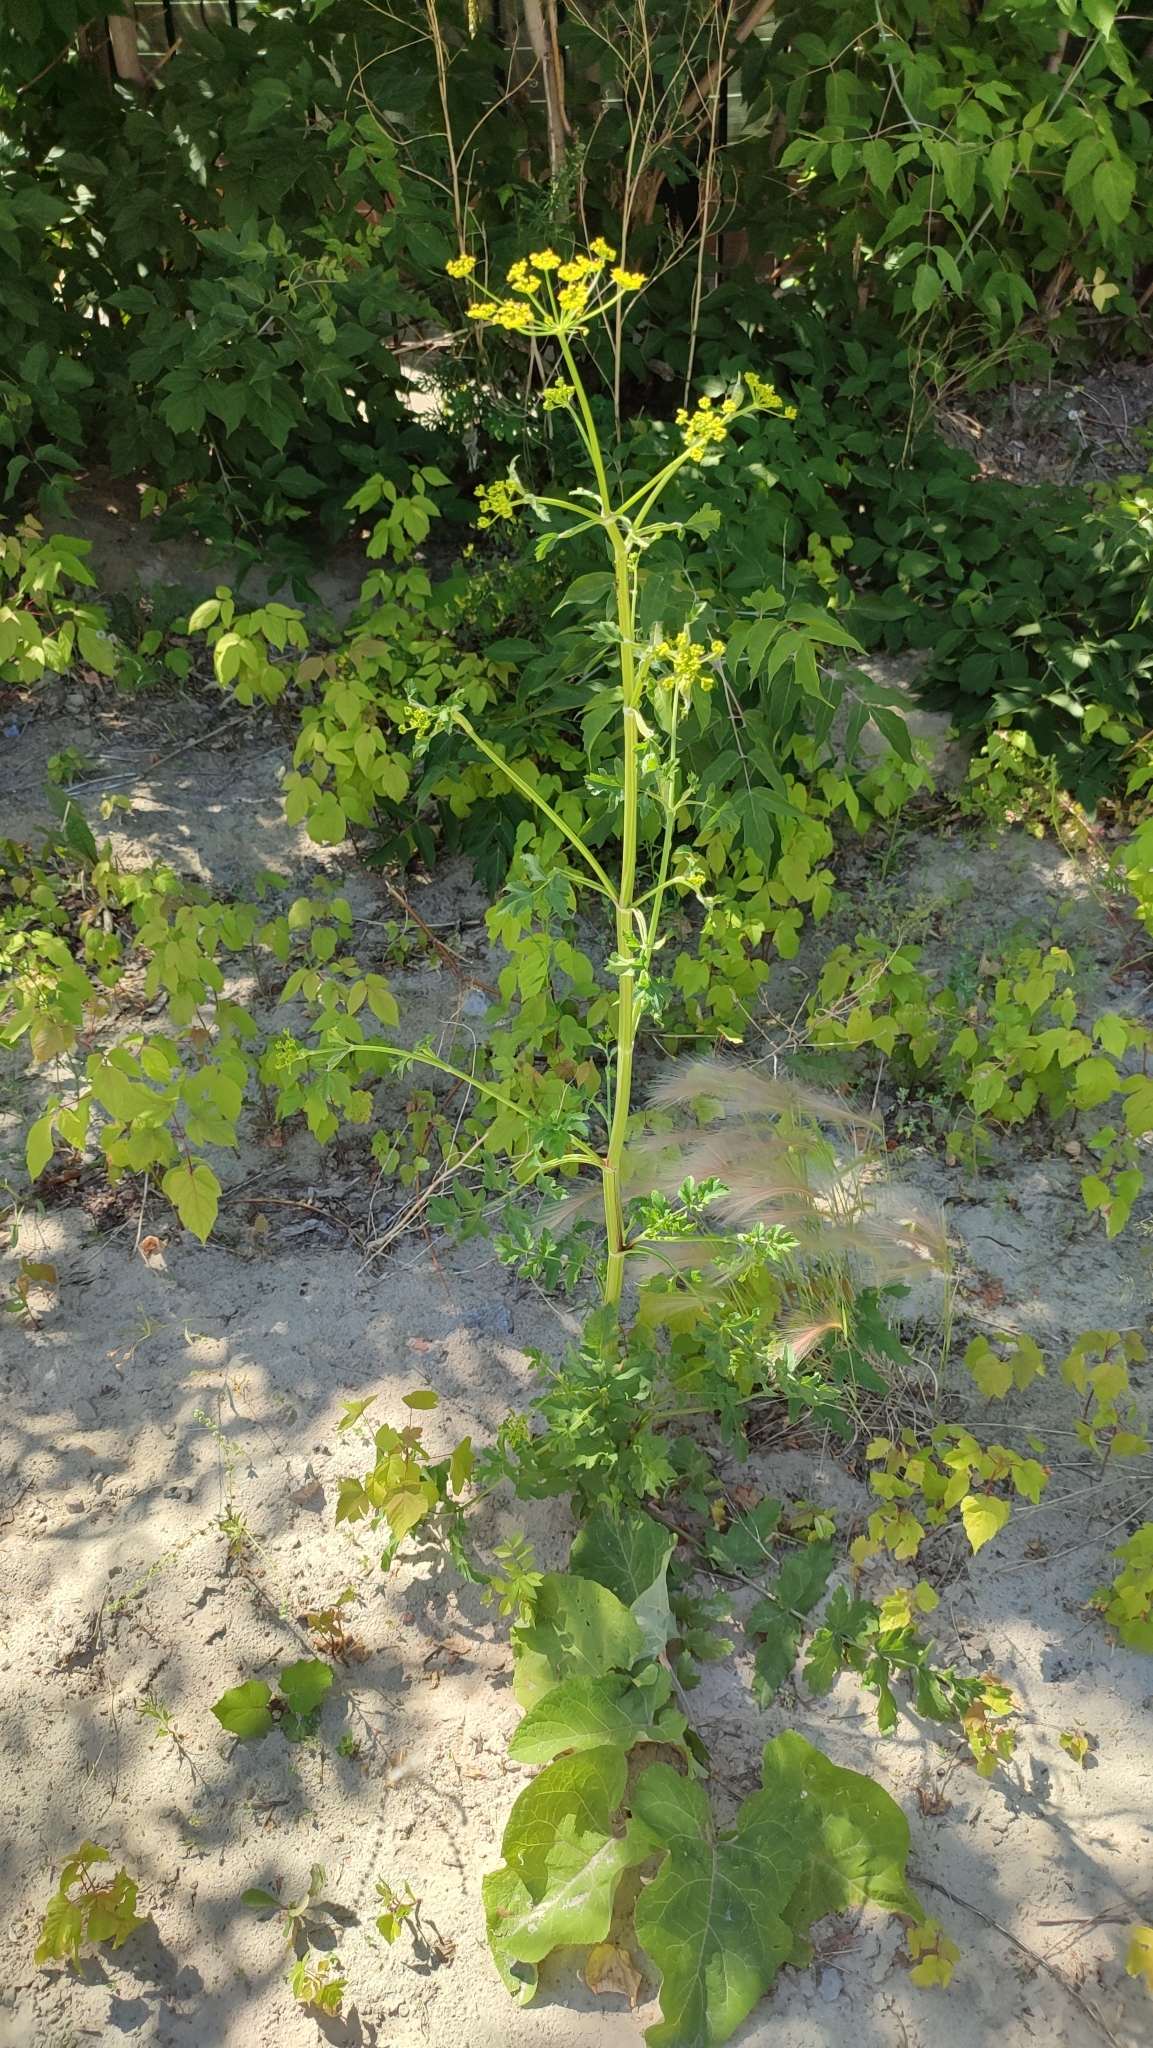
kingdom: Plantae
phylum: Tracheophyta
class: Magnoliopsida
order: Apiales
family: Apiaceae
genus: Pastinaca
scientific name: Pastinaca sativa
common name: Wild parsnip
